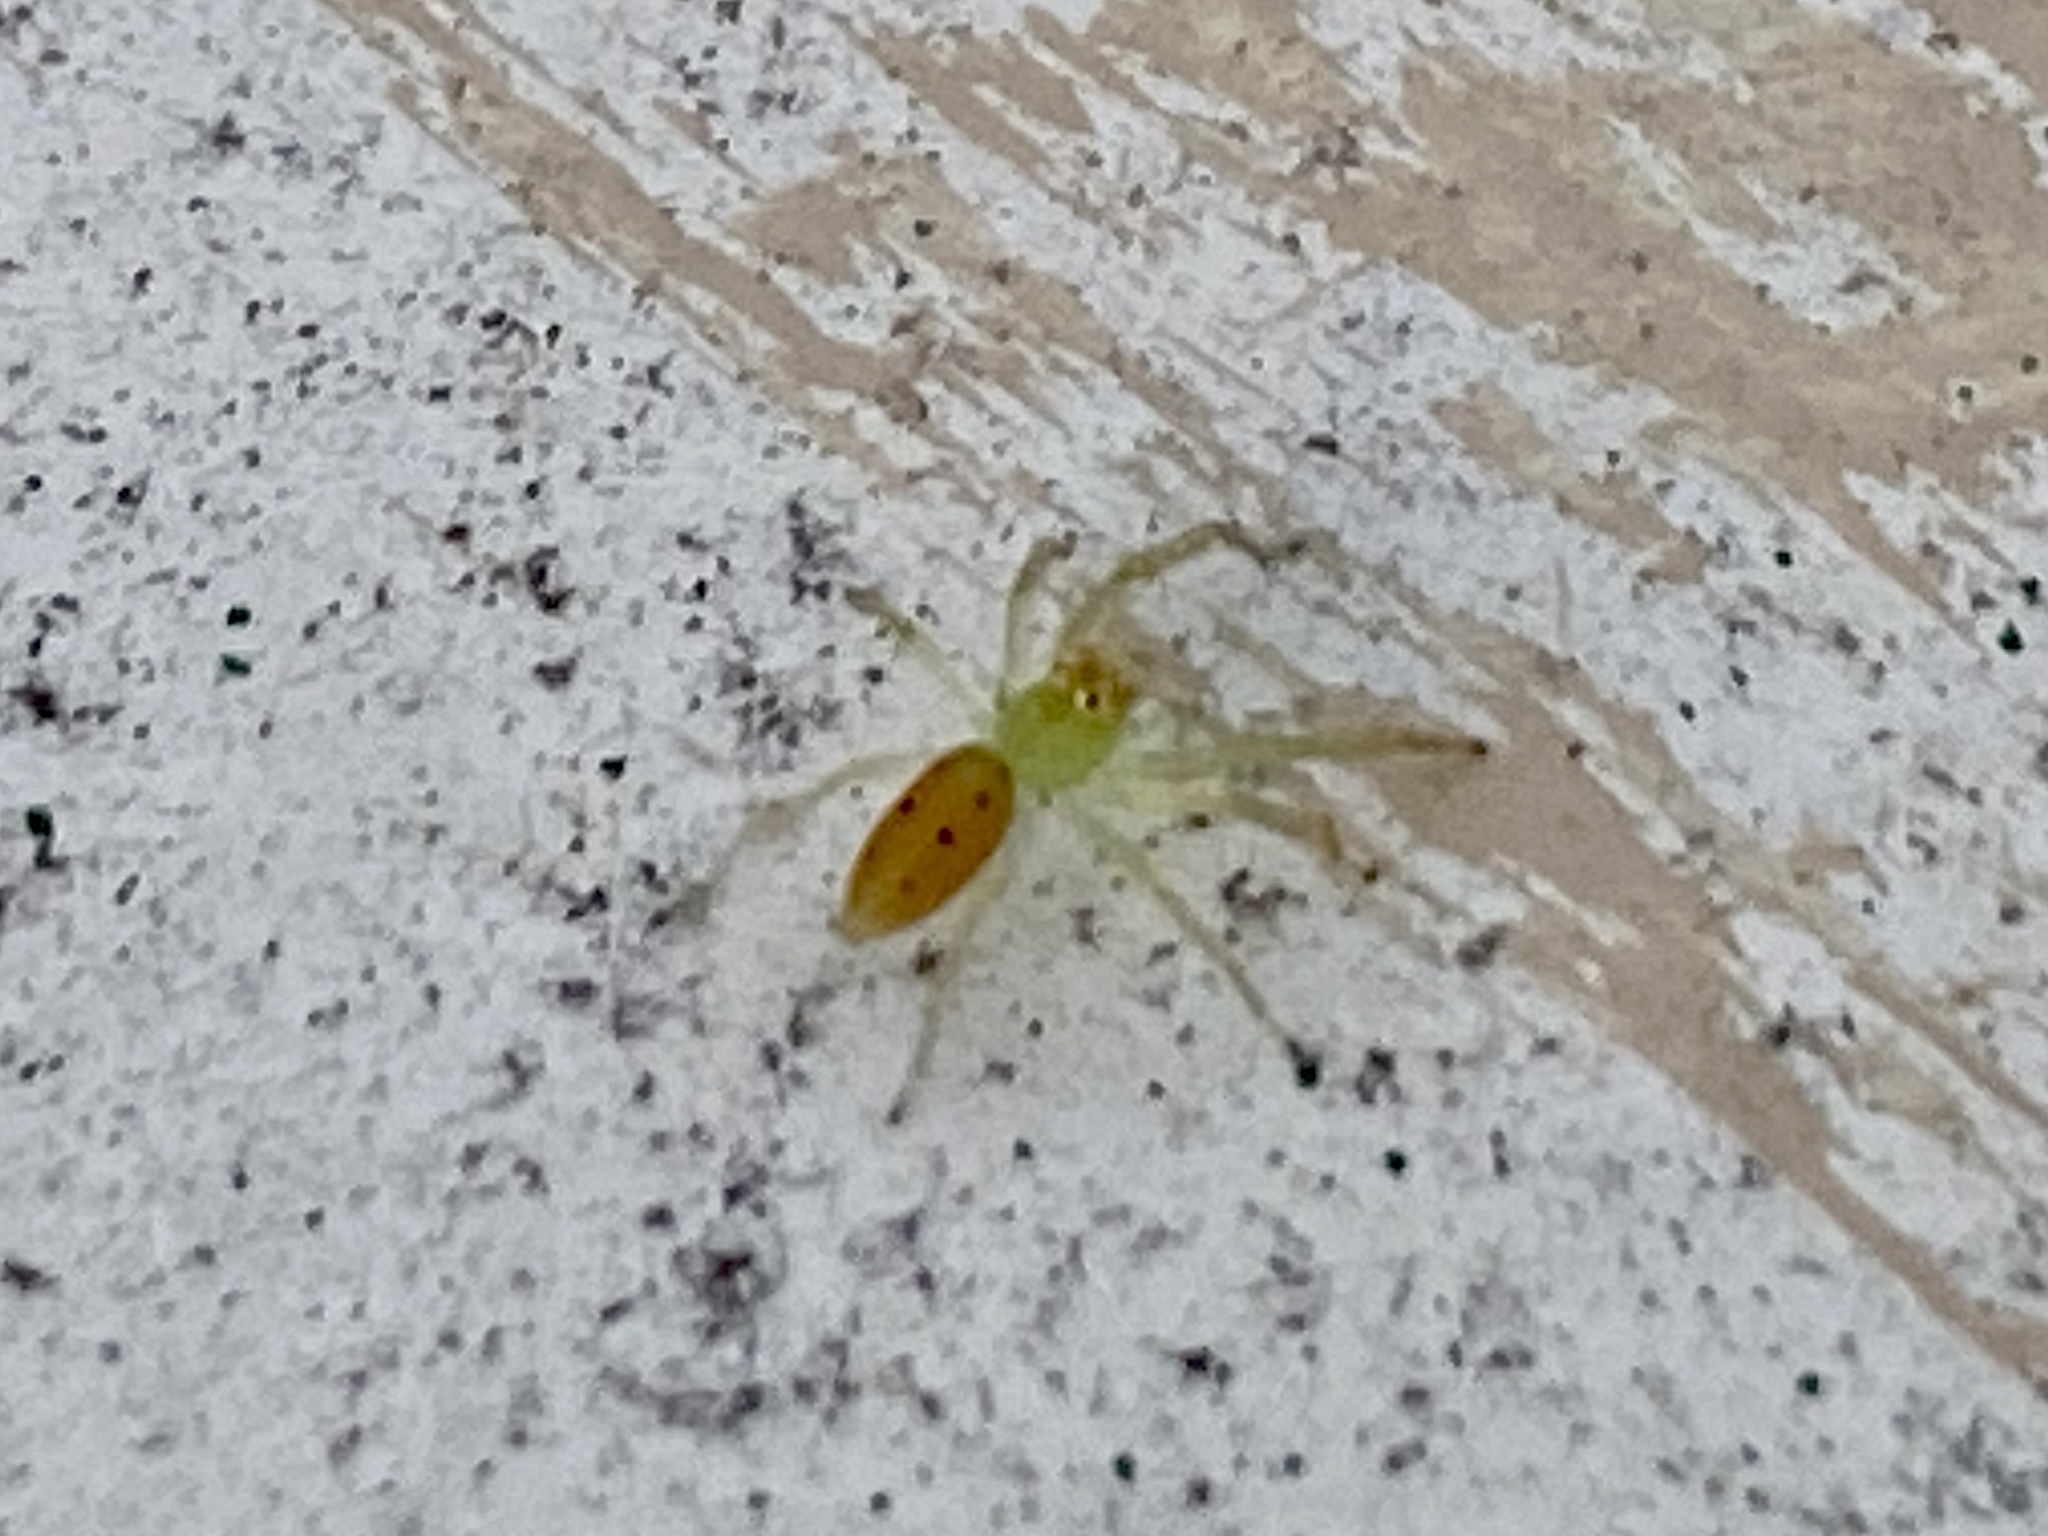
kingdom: Animalia
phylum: Arthropoda
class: Arachnida
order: Araneae
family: Salticidae
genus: Lyssomanes
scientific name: Lyssomanes viridis
